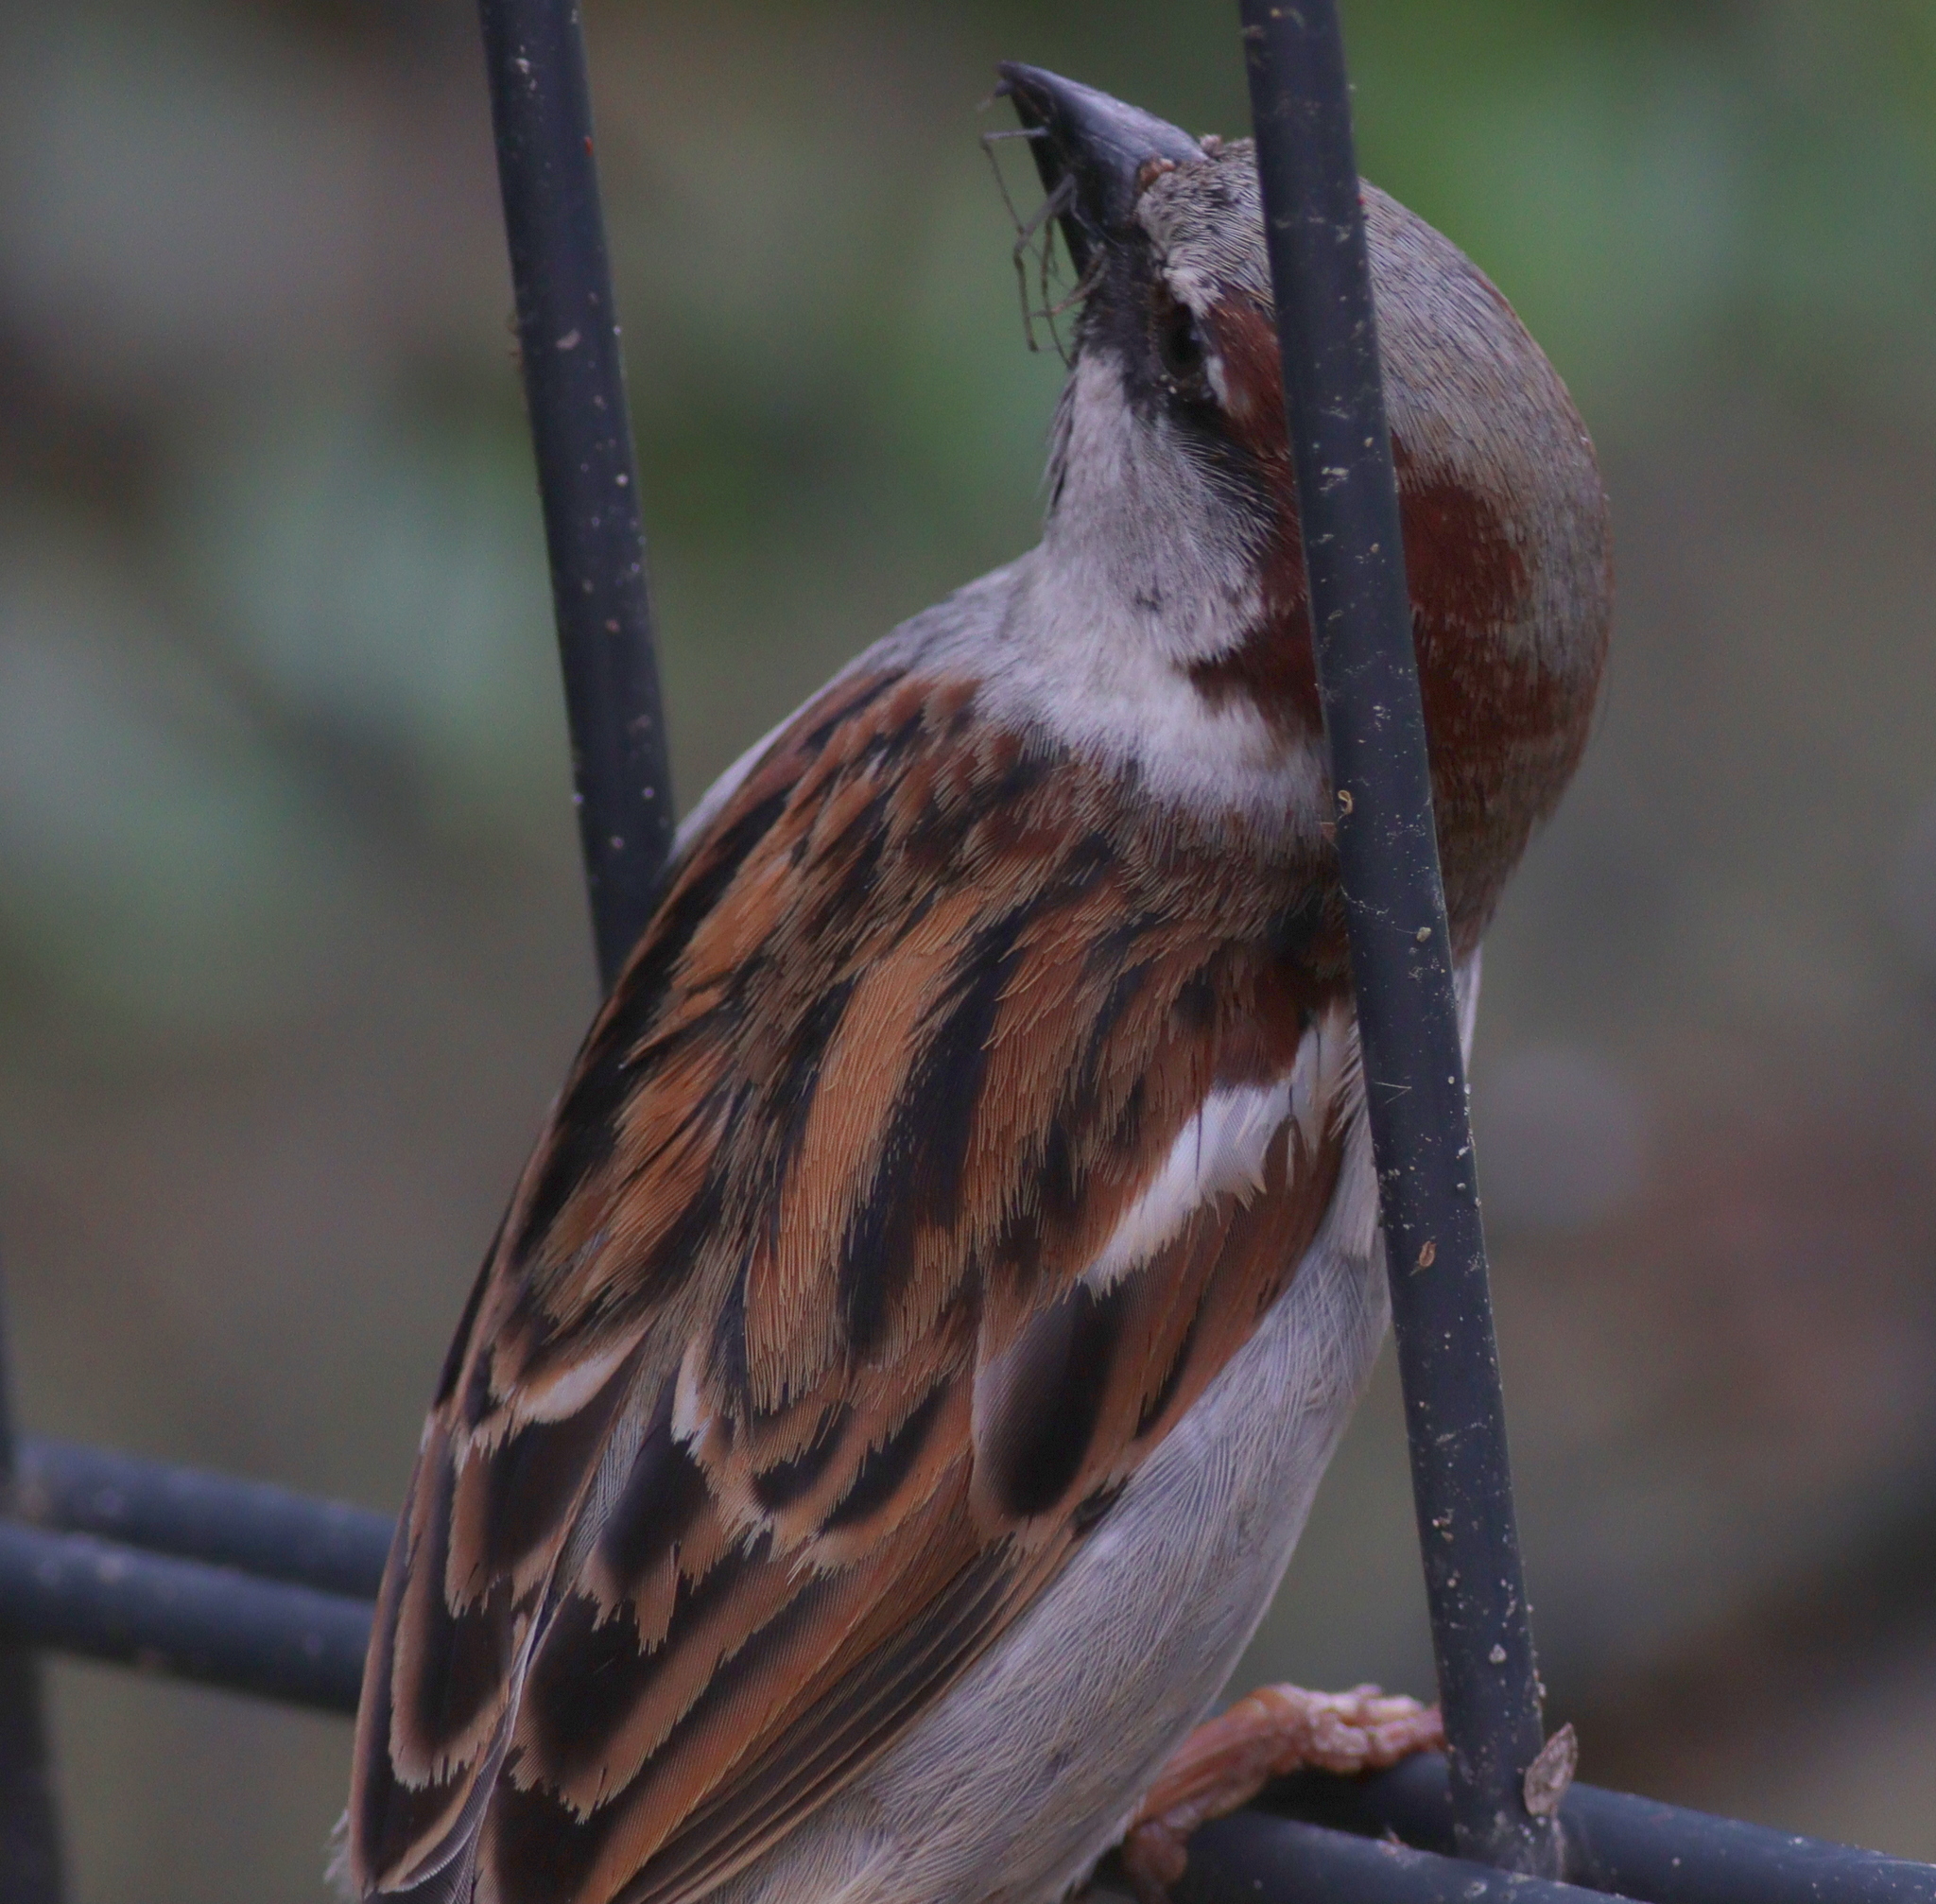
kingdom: Animalia
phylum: Chordata
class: Aves
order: Passeriformes
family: Passeridae
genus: Passer
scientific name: Passer domesticus
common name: House sparrow
